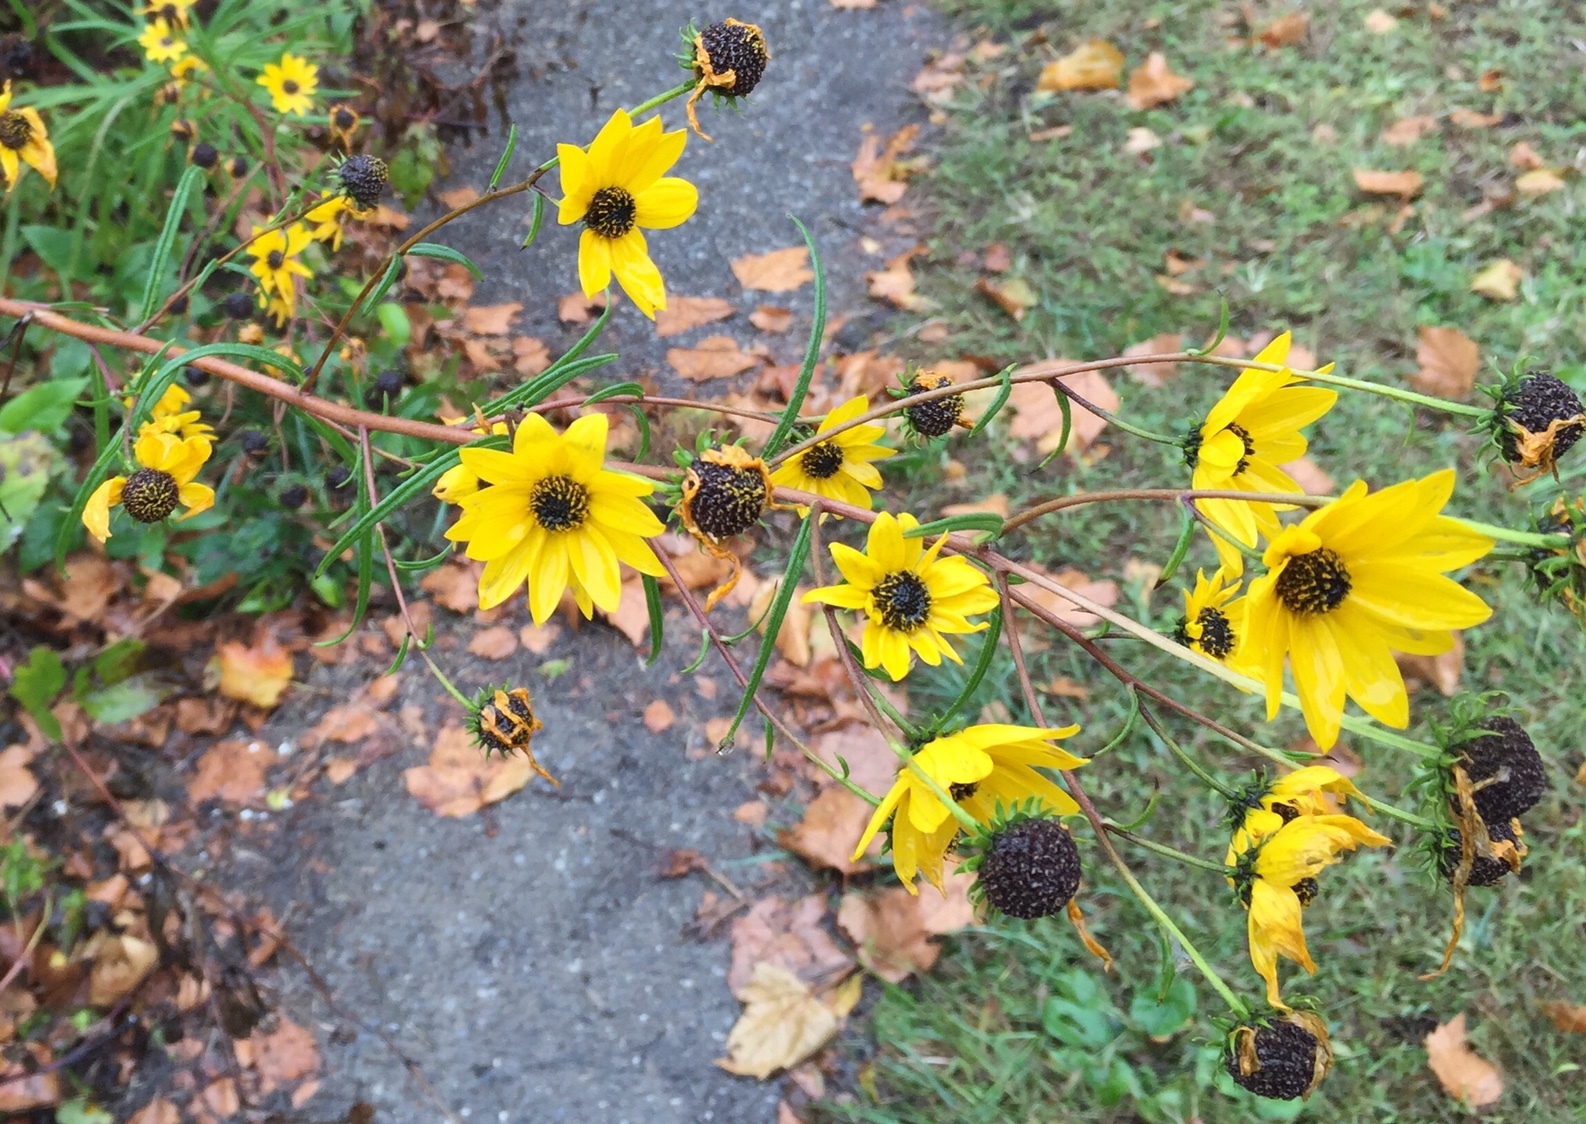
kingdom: Plantae
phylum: Tracheophyta
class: Magnoliopsida
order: Asterales
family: Asteraceae
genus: Helianthus
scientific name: Helianthus angustifolius
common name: Swamp sunflower
